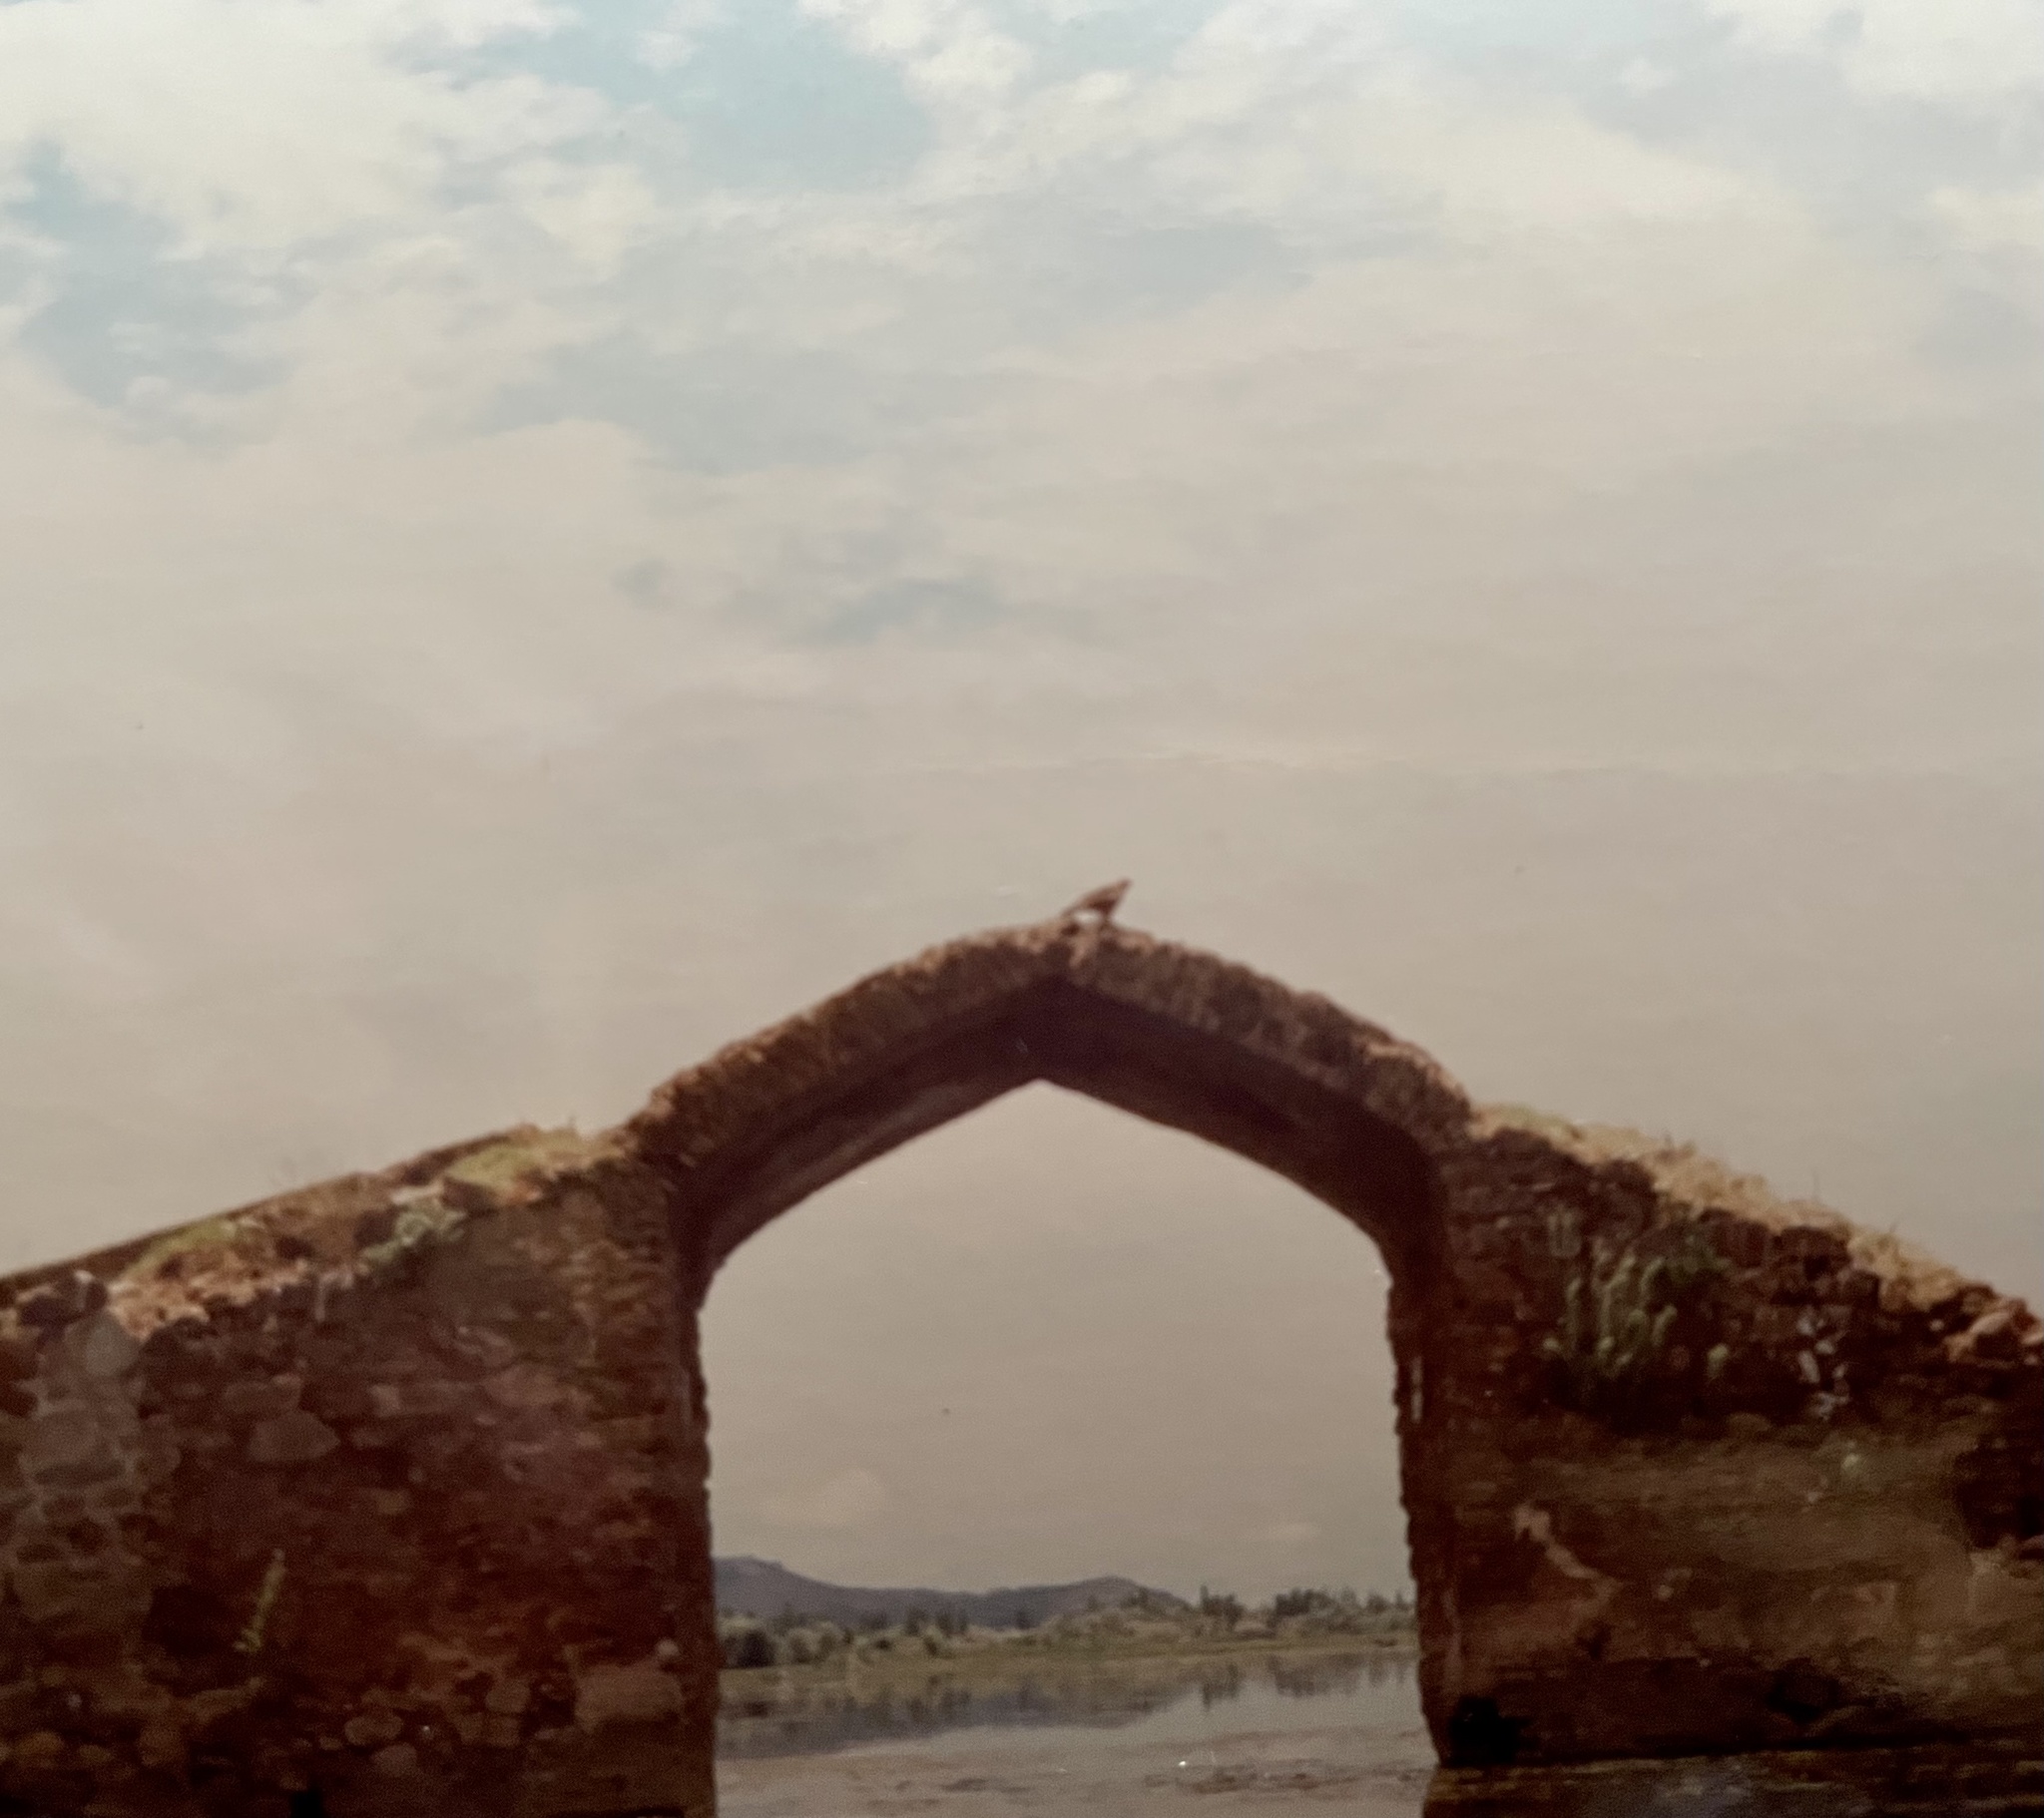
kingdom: Animalia
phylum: Chordata
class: Aves
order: Accipitriformes
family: Accipitridae
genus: Milvus
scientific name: Milvus migrans
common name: Black kite
